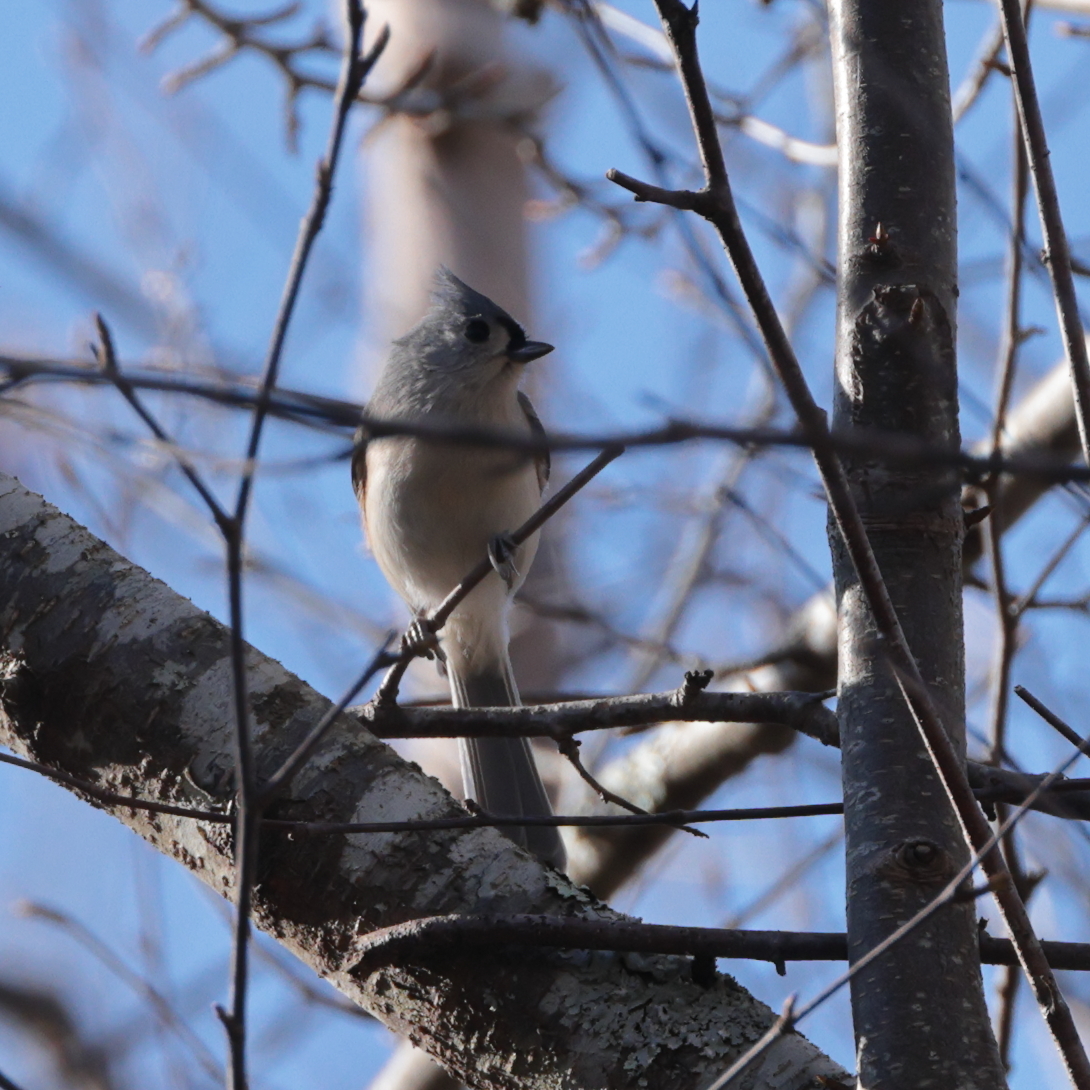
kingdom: Animalia
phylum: Chordata
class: Aves
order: Passeriformes
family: Paridae
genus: Baeolophus
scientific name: Baeolophus bicolor
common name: Tufted titmouse
